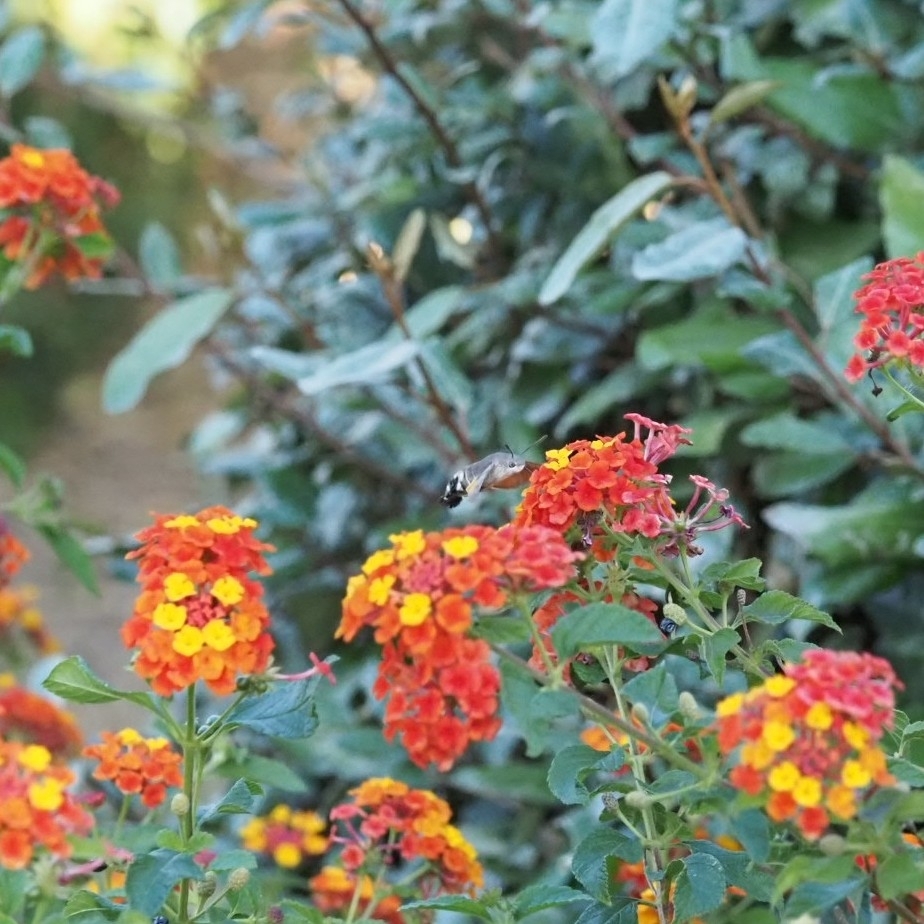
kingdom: Animalia
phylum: Arthropoda
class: Insecta
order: Lepidoptera
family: Sphingidae
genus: Macroglossum
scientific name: Macroglossum stellatarum
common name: Humming-bird hawk-moth
